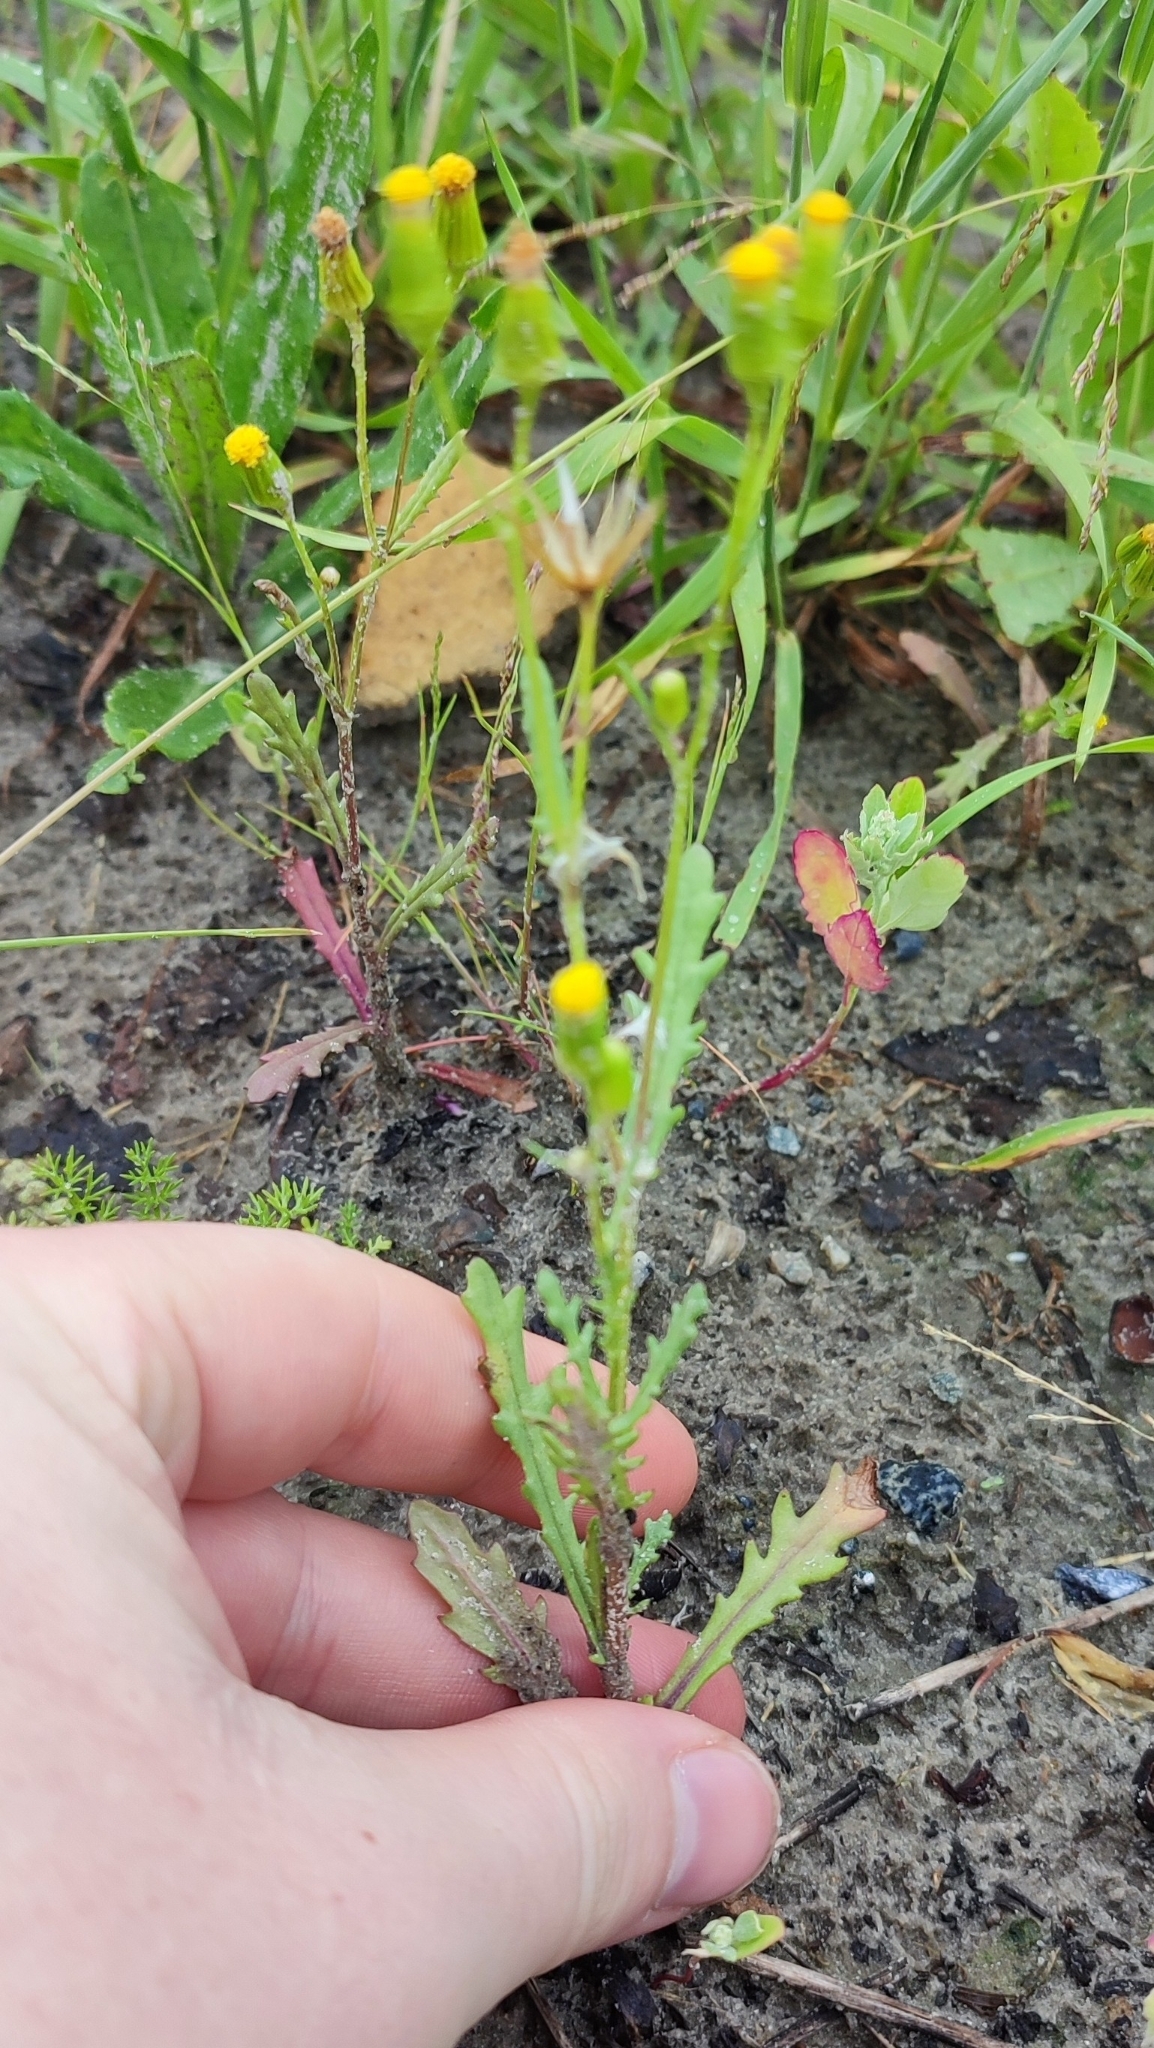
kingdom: Plantae
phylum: Tracheophyta
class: Magnoliopsida
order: Asterales
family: Asteraceae
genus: Senecio
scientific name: Senecio dubitabilis
